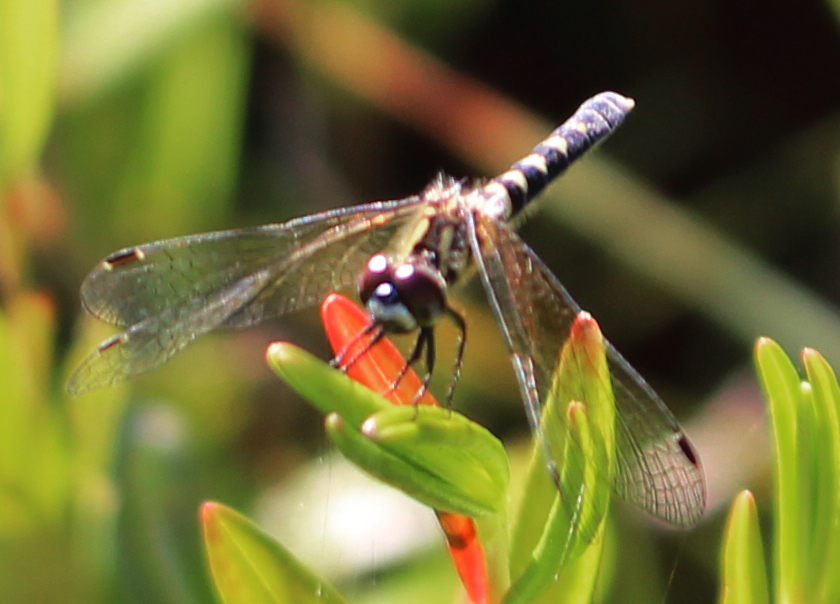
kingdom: Animalia
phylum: Arthropoda
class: Insecta
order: Odonata
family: Libellulidae
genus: Nannothemis
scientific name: Nannothemis bella
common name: Elfin skimmer
